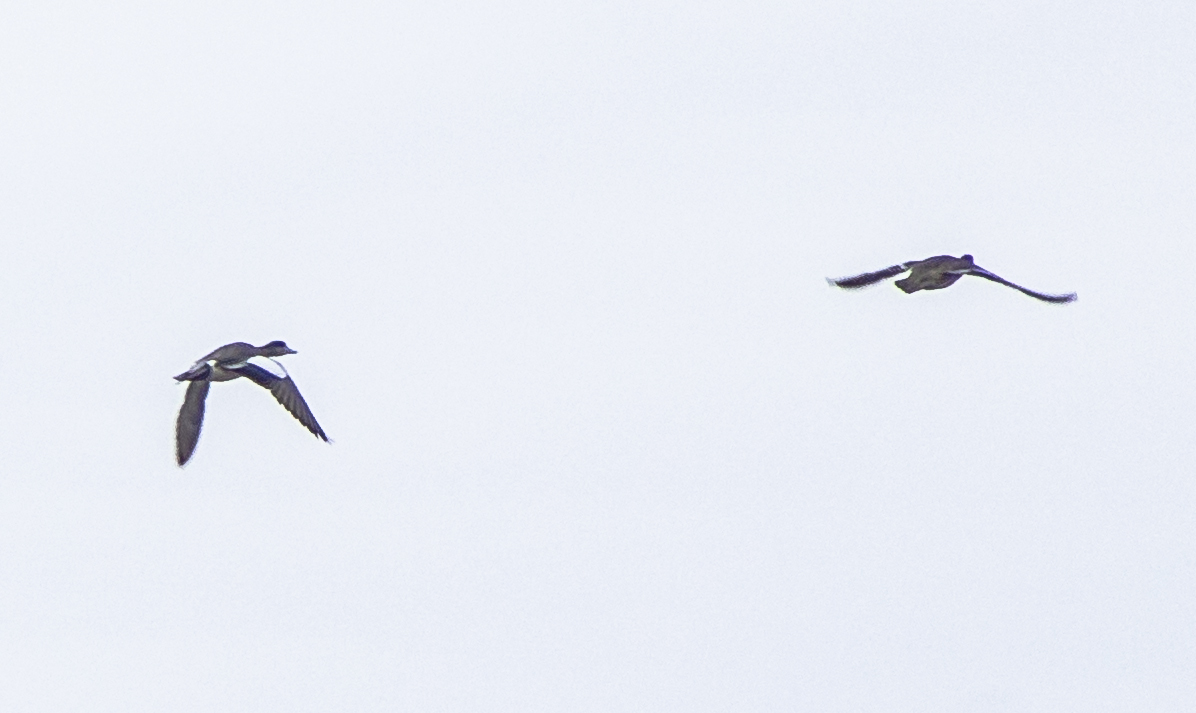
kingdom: Animalia
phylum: Chordata
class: Aves
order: Anseriformes
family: Anatidae
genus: Mareca
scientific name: Mareca americana
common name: American wigeon
